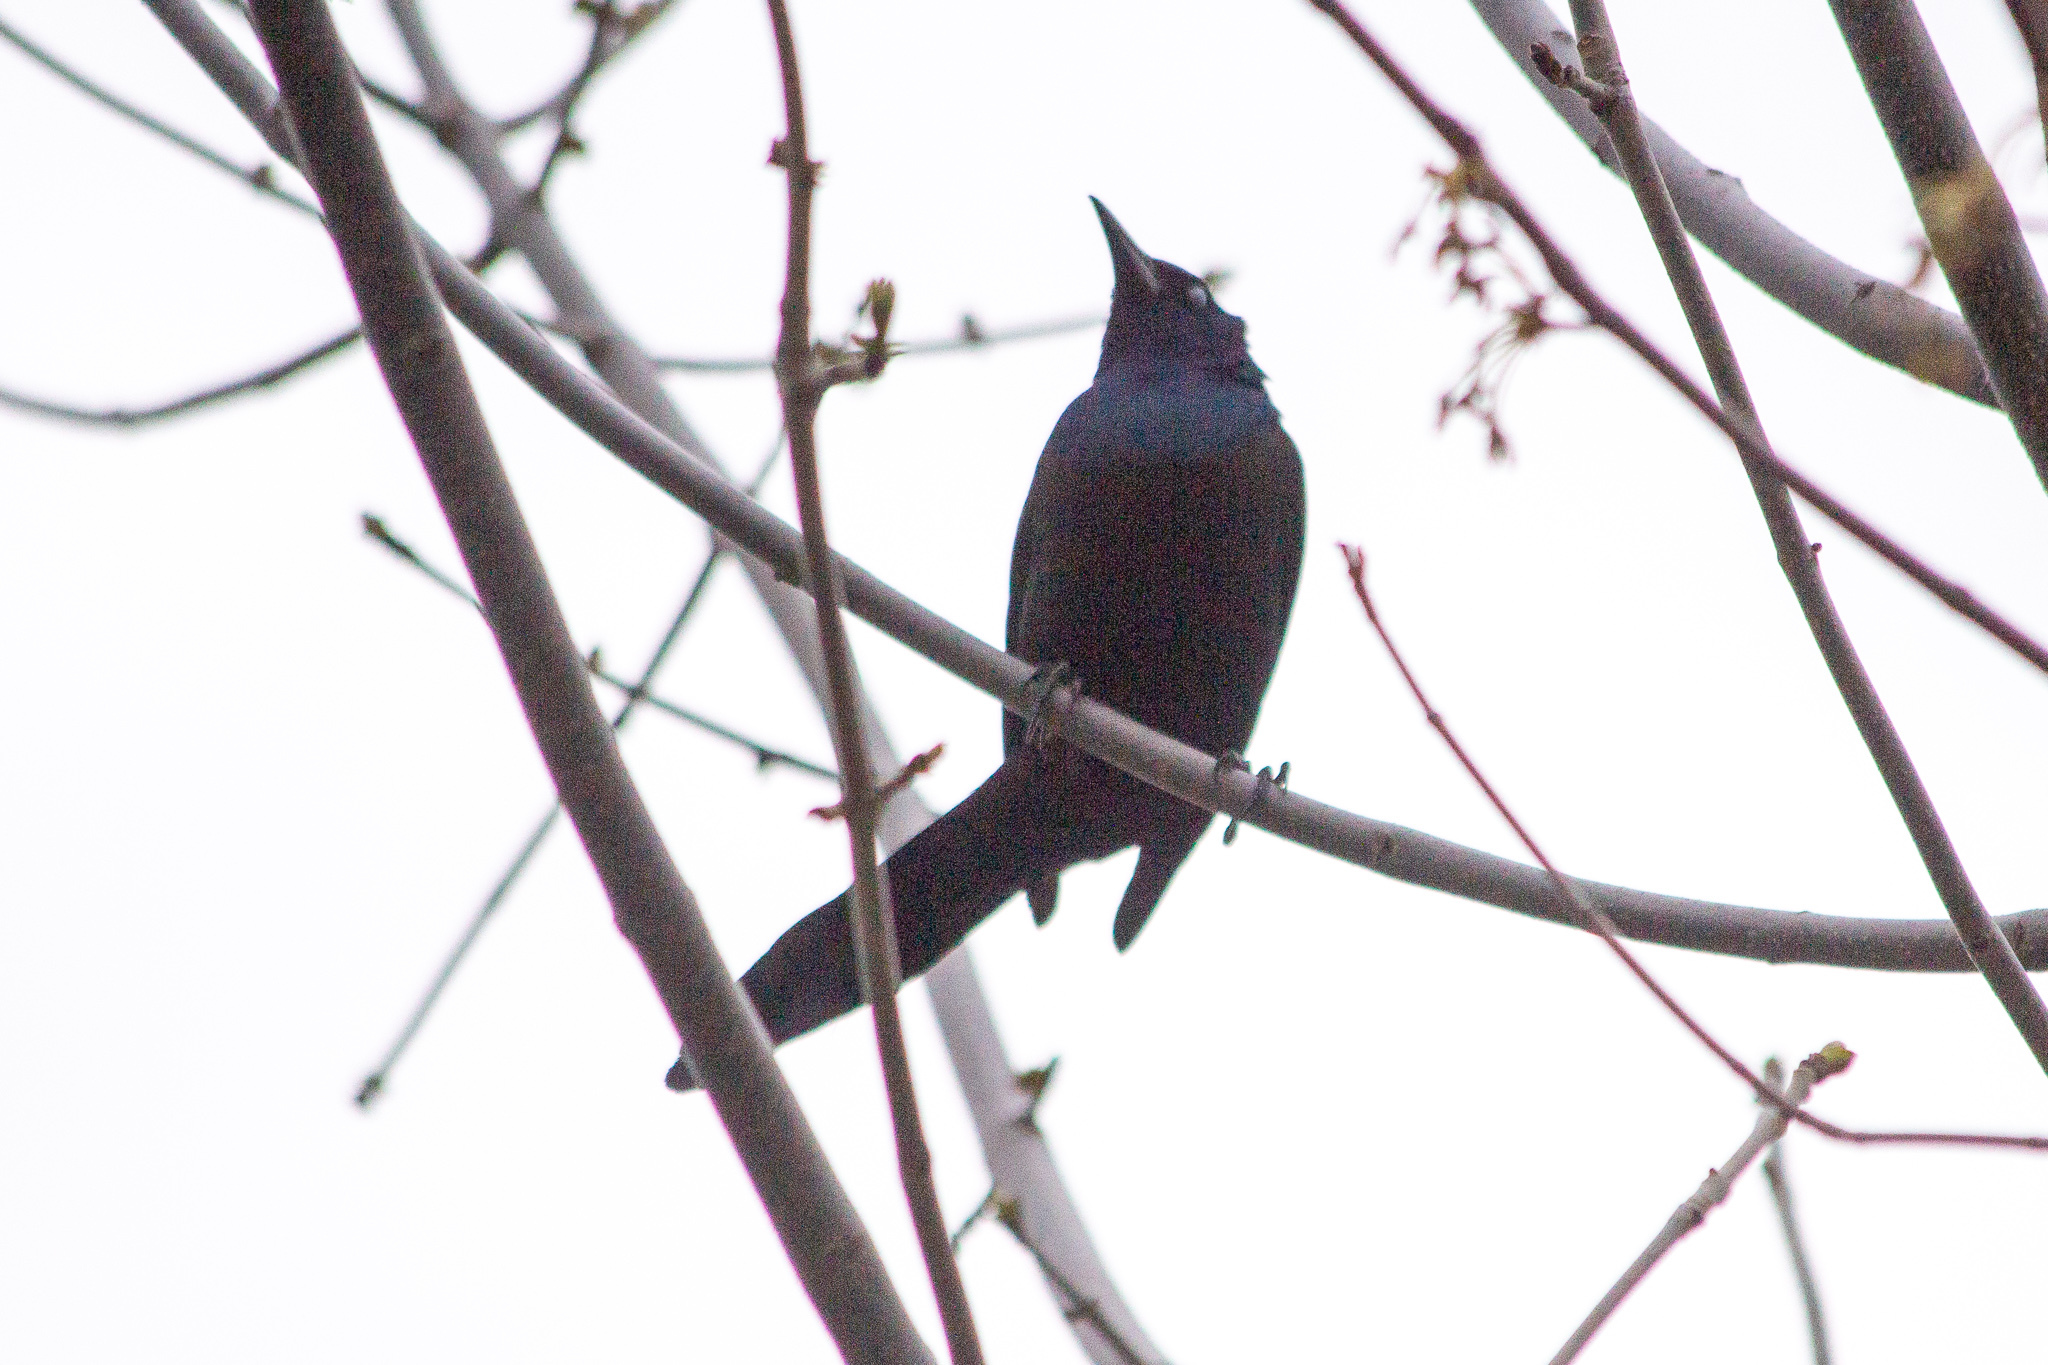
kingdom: Animalia
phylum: Chordata
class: Aves
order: Passeriformes
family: Icteridae
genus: Quiscalus
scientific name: Quiscalus quiscula
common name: Common grackle
